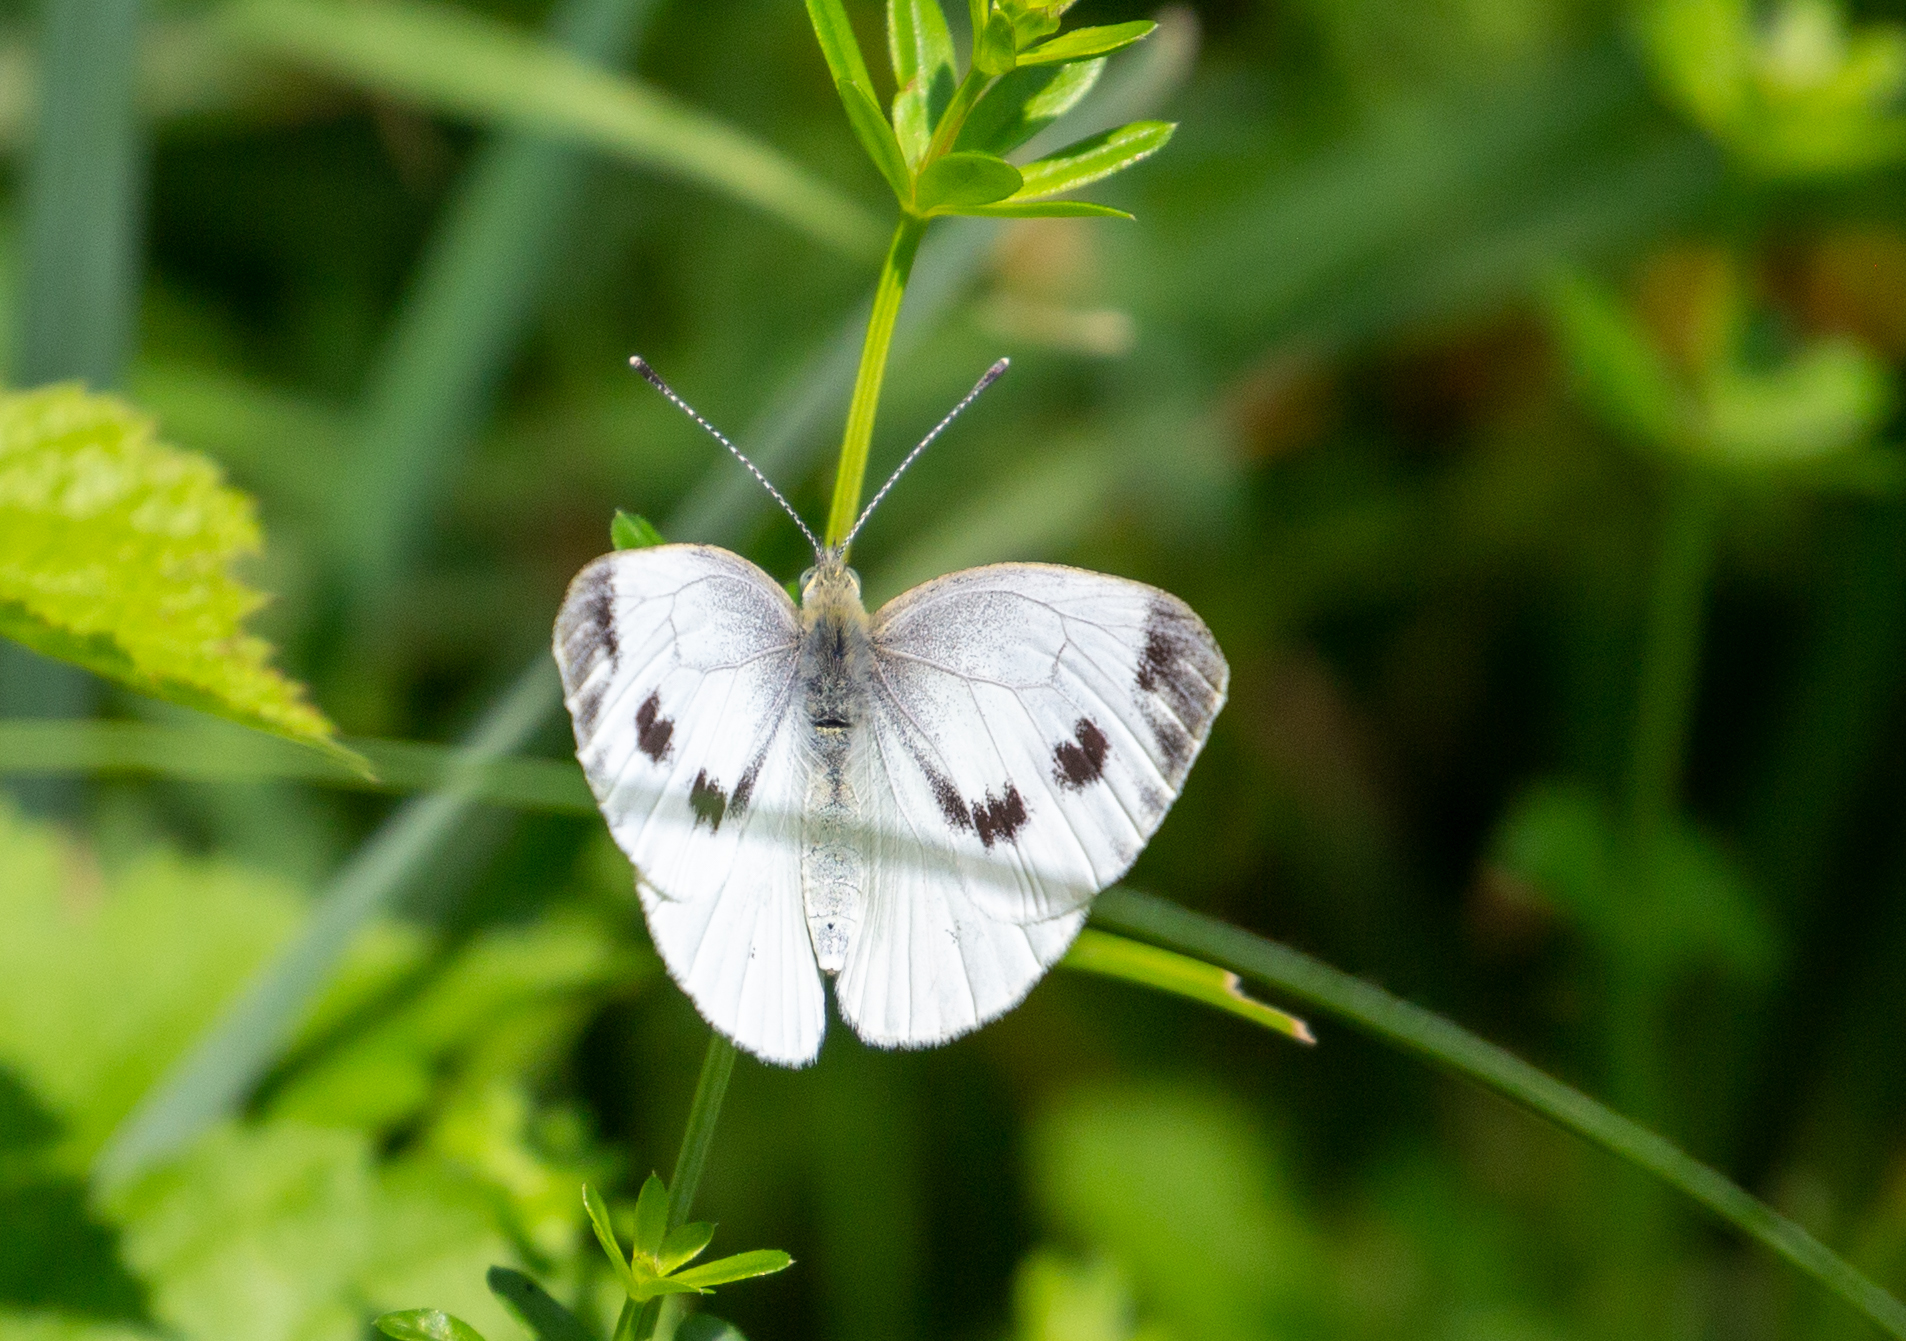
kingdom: Animalia
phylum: Arthropoda
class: Insecta
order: Lepidoptera
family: Pieridae
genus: Pieris
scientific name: Pieris napi
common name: Green-veined white
